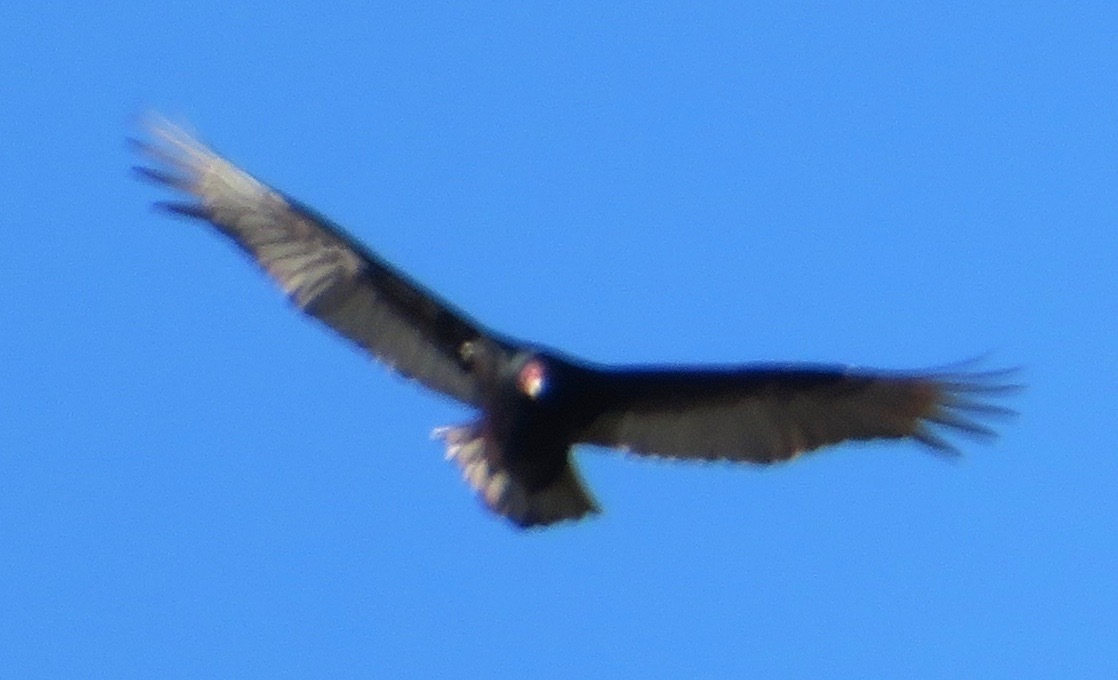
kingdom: Animalia
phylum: Chordata
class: Aves
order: Accipitriformes
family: Cathartidae
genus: Cathartes
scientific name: Cathartes aura
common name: Turkey vulture
